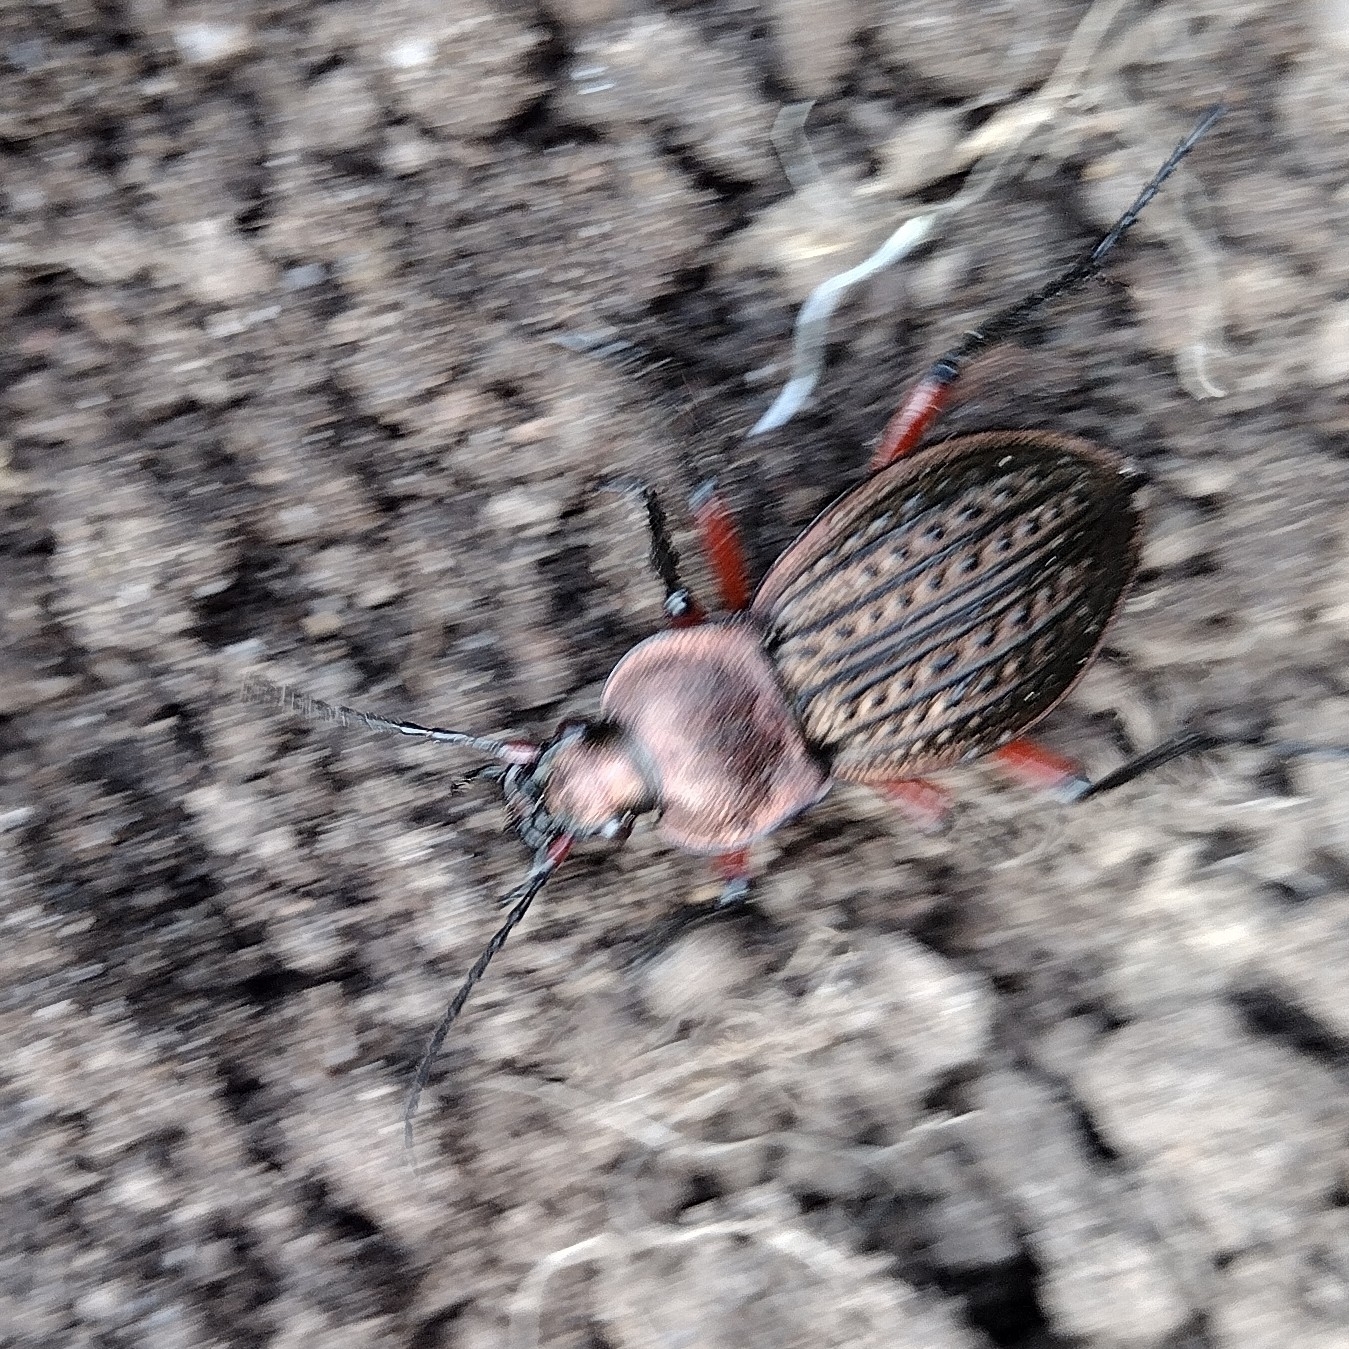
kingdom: Animalia
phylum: Arthropoda
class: Insecta
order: Coleoptera
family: Carabidae
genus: Carabus
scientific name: Carabus cancellatus
